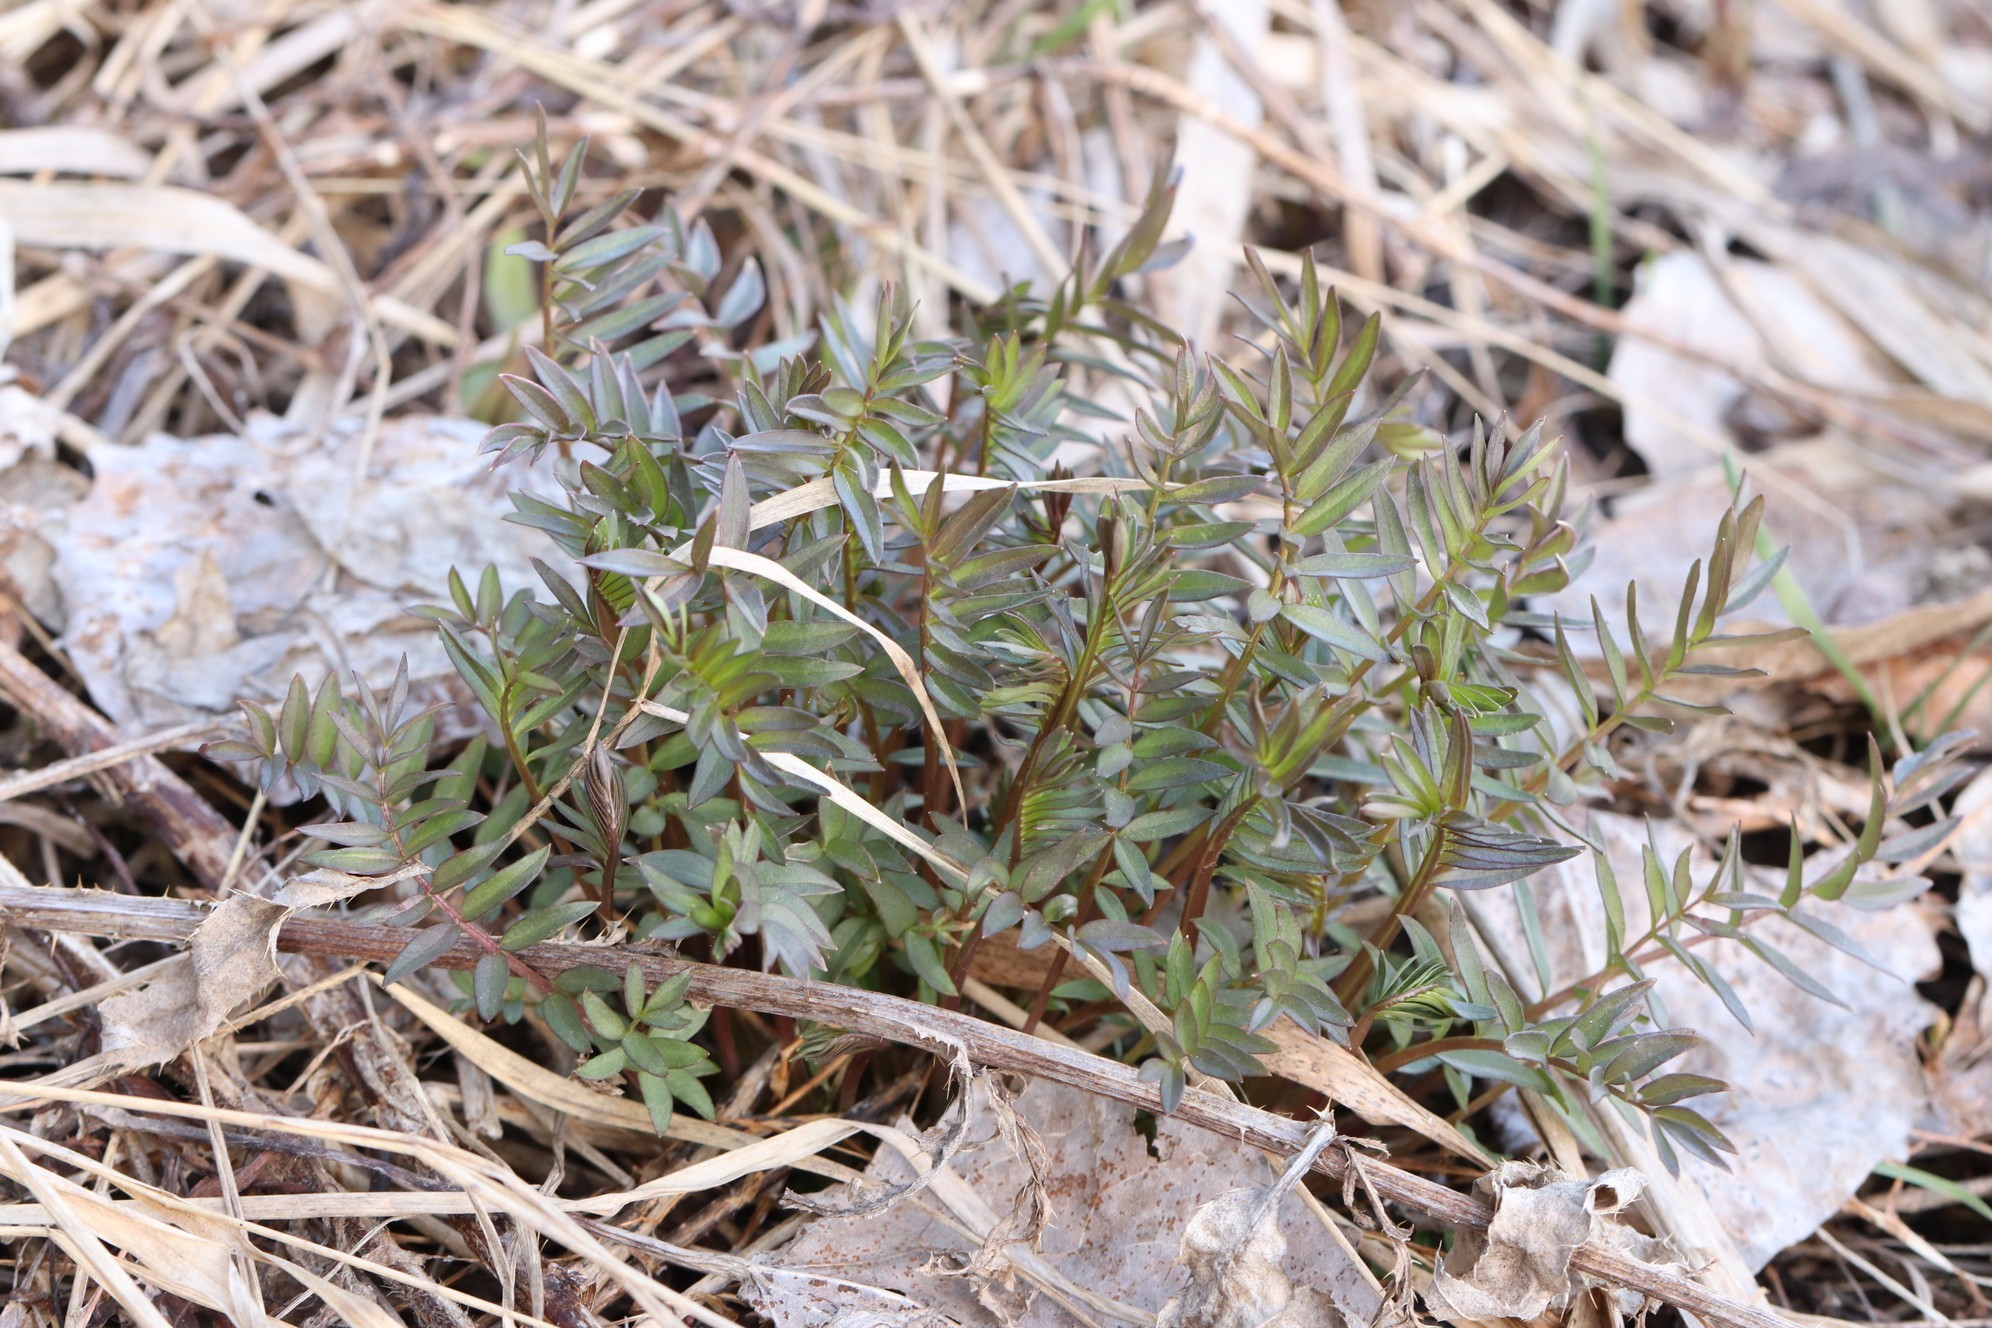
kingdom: Plantae
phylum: Tracheophyta
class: Magnoliopsida
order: Ericales
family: Polemoniaceae
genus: Polemonium
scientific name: Polemonium caeruleum
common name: Jacob's-ladder
